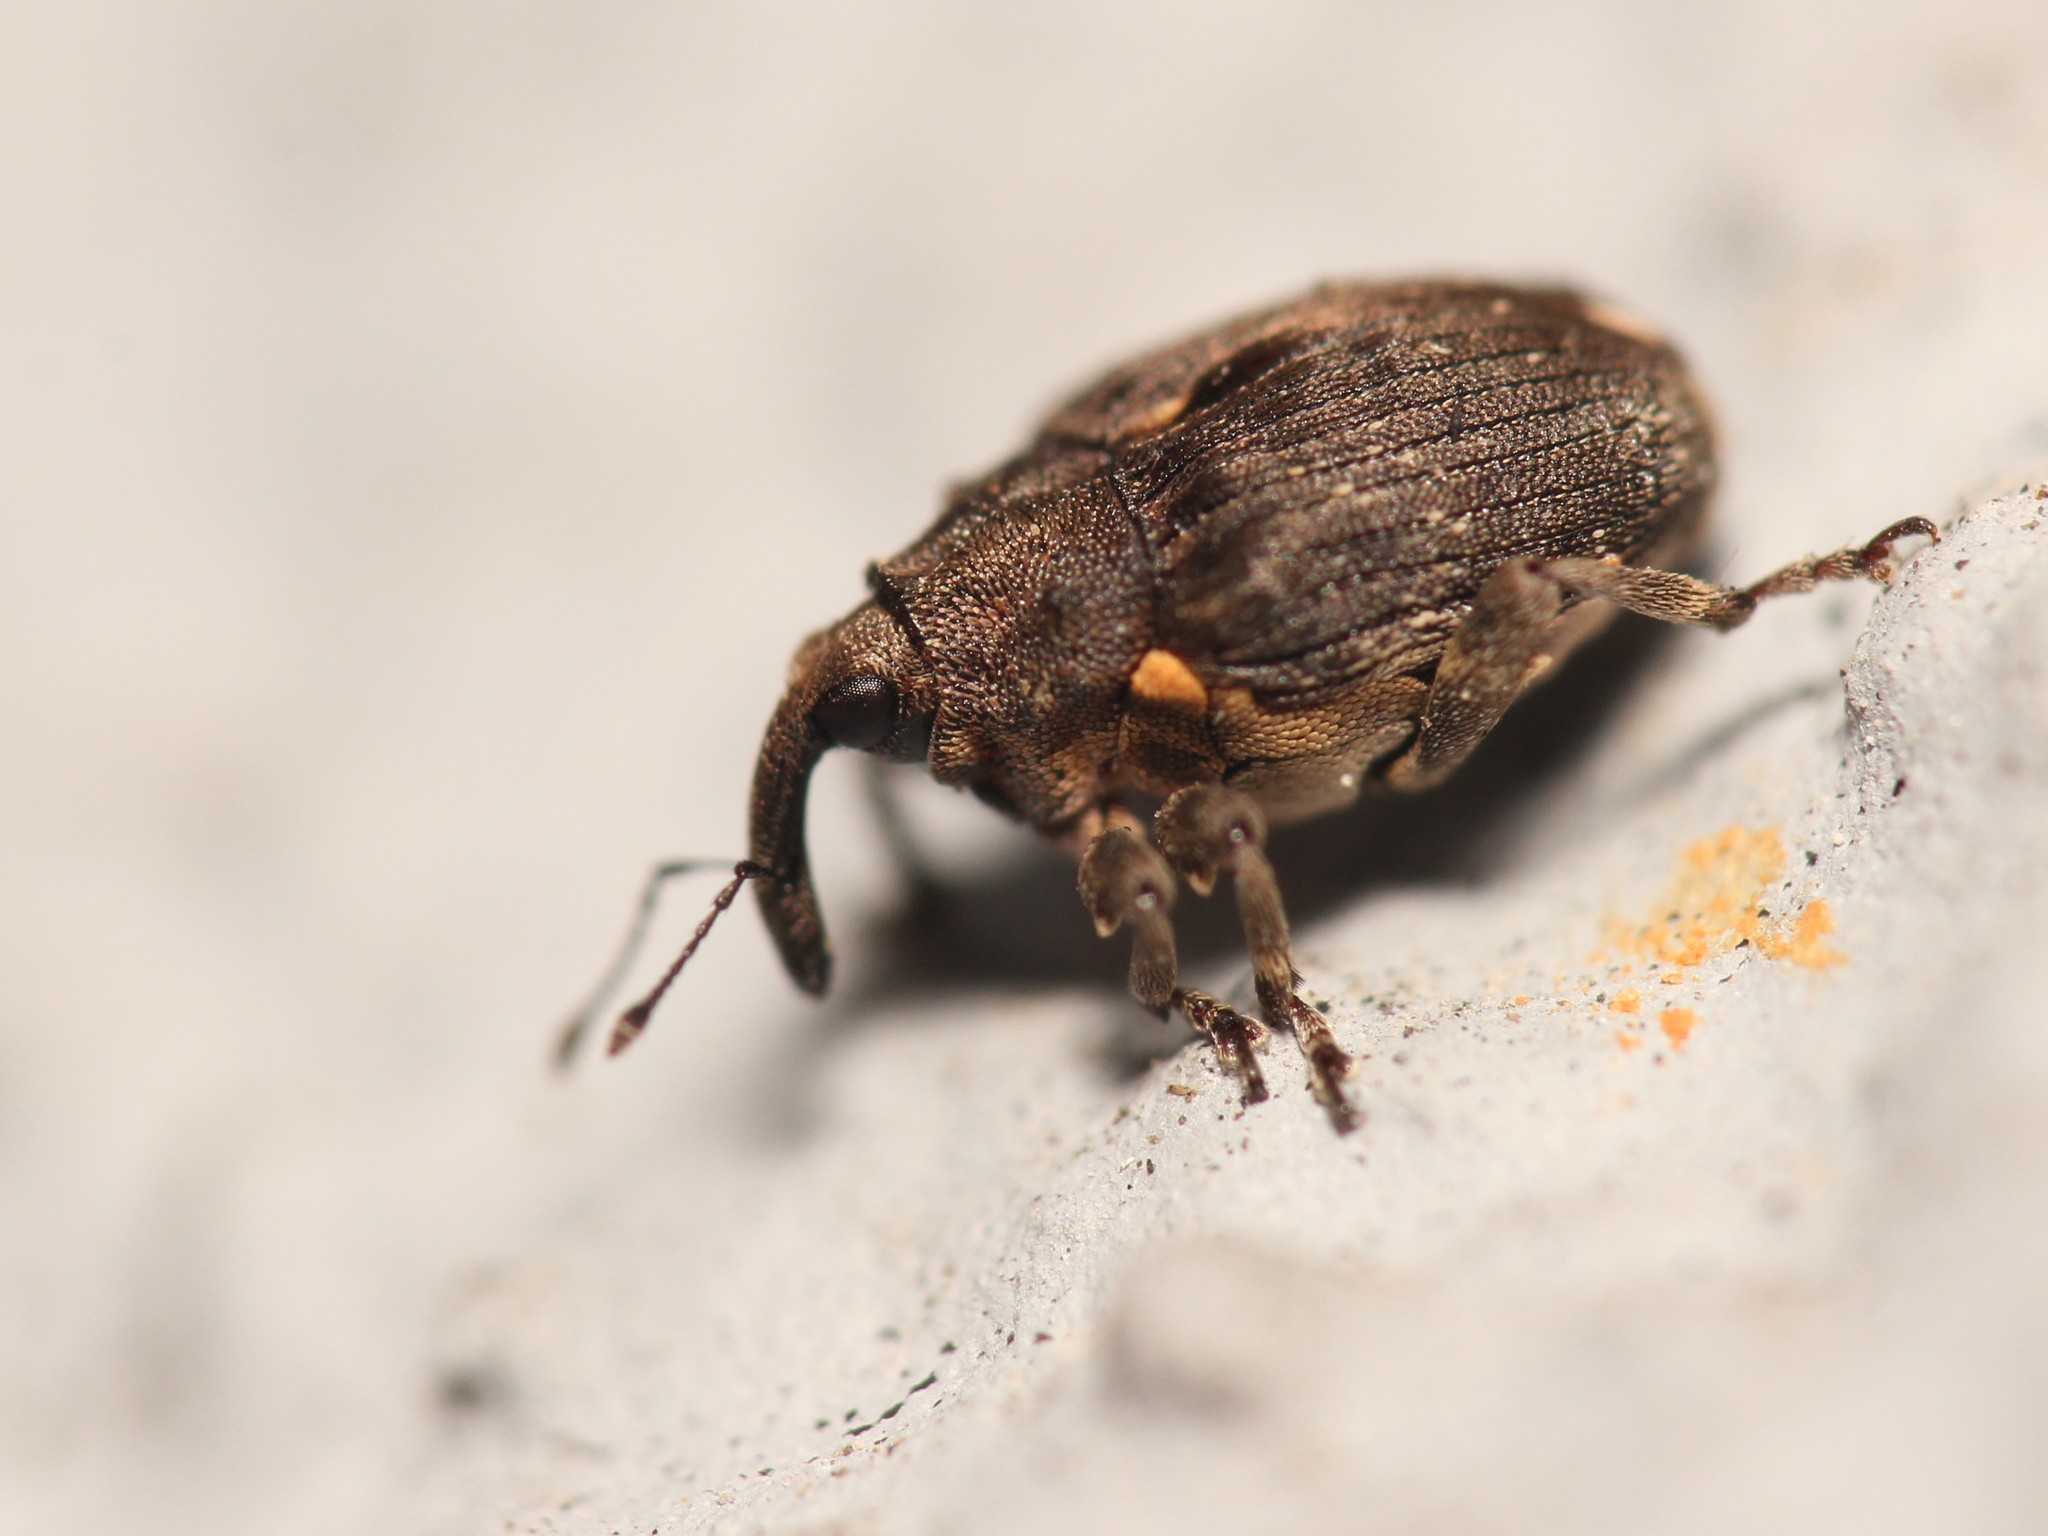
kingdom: Animalia
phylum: Arthropoda
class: Insecta
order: Coleoptera
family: Curculionidae
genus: Stenocarus
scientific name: Stenocarus ruficornis
